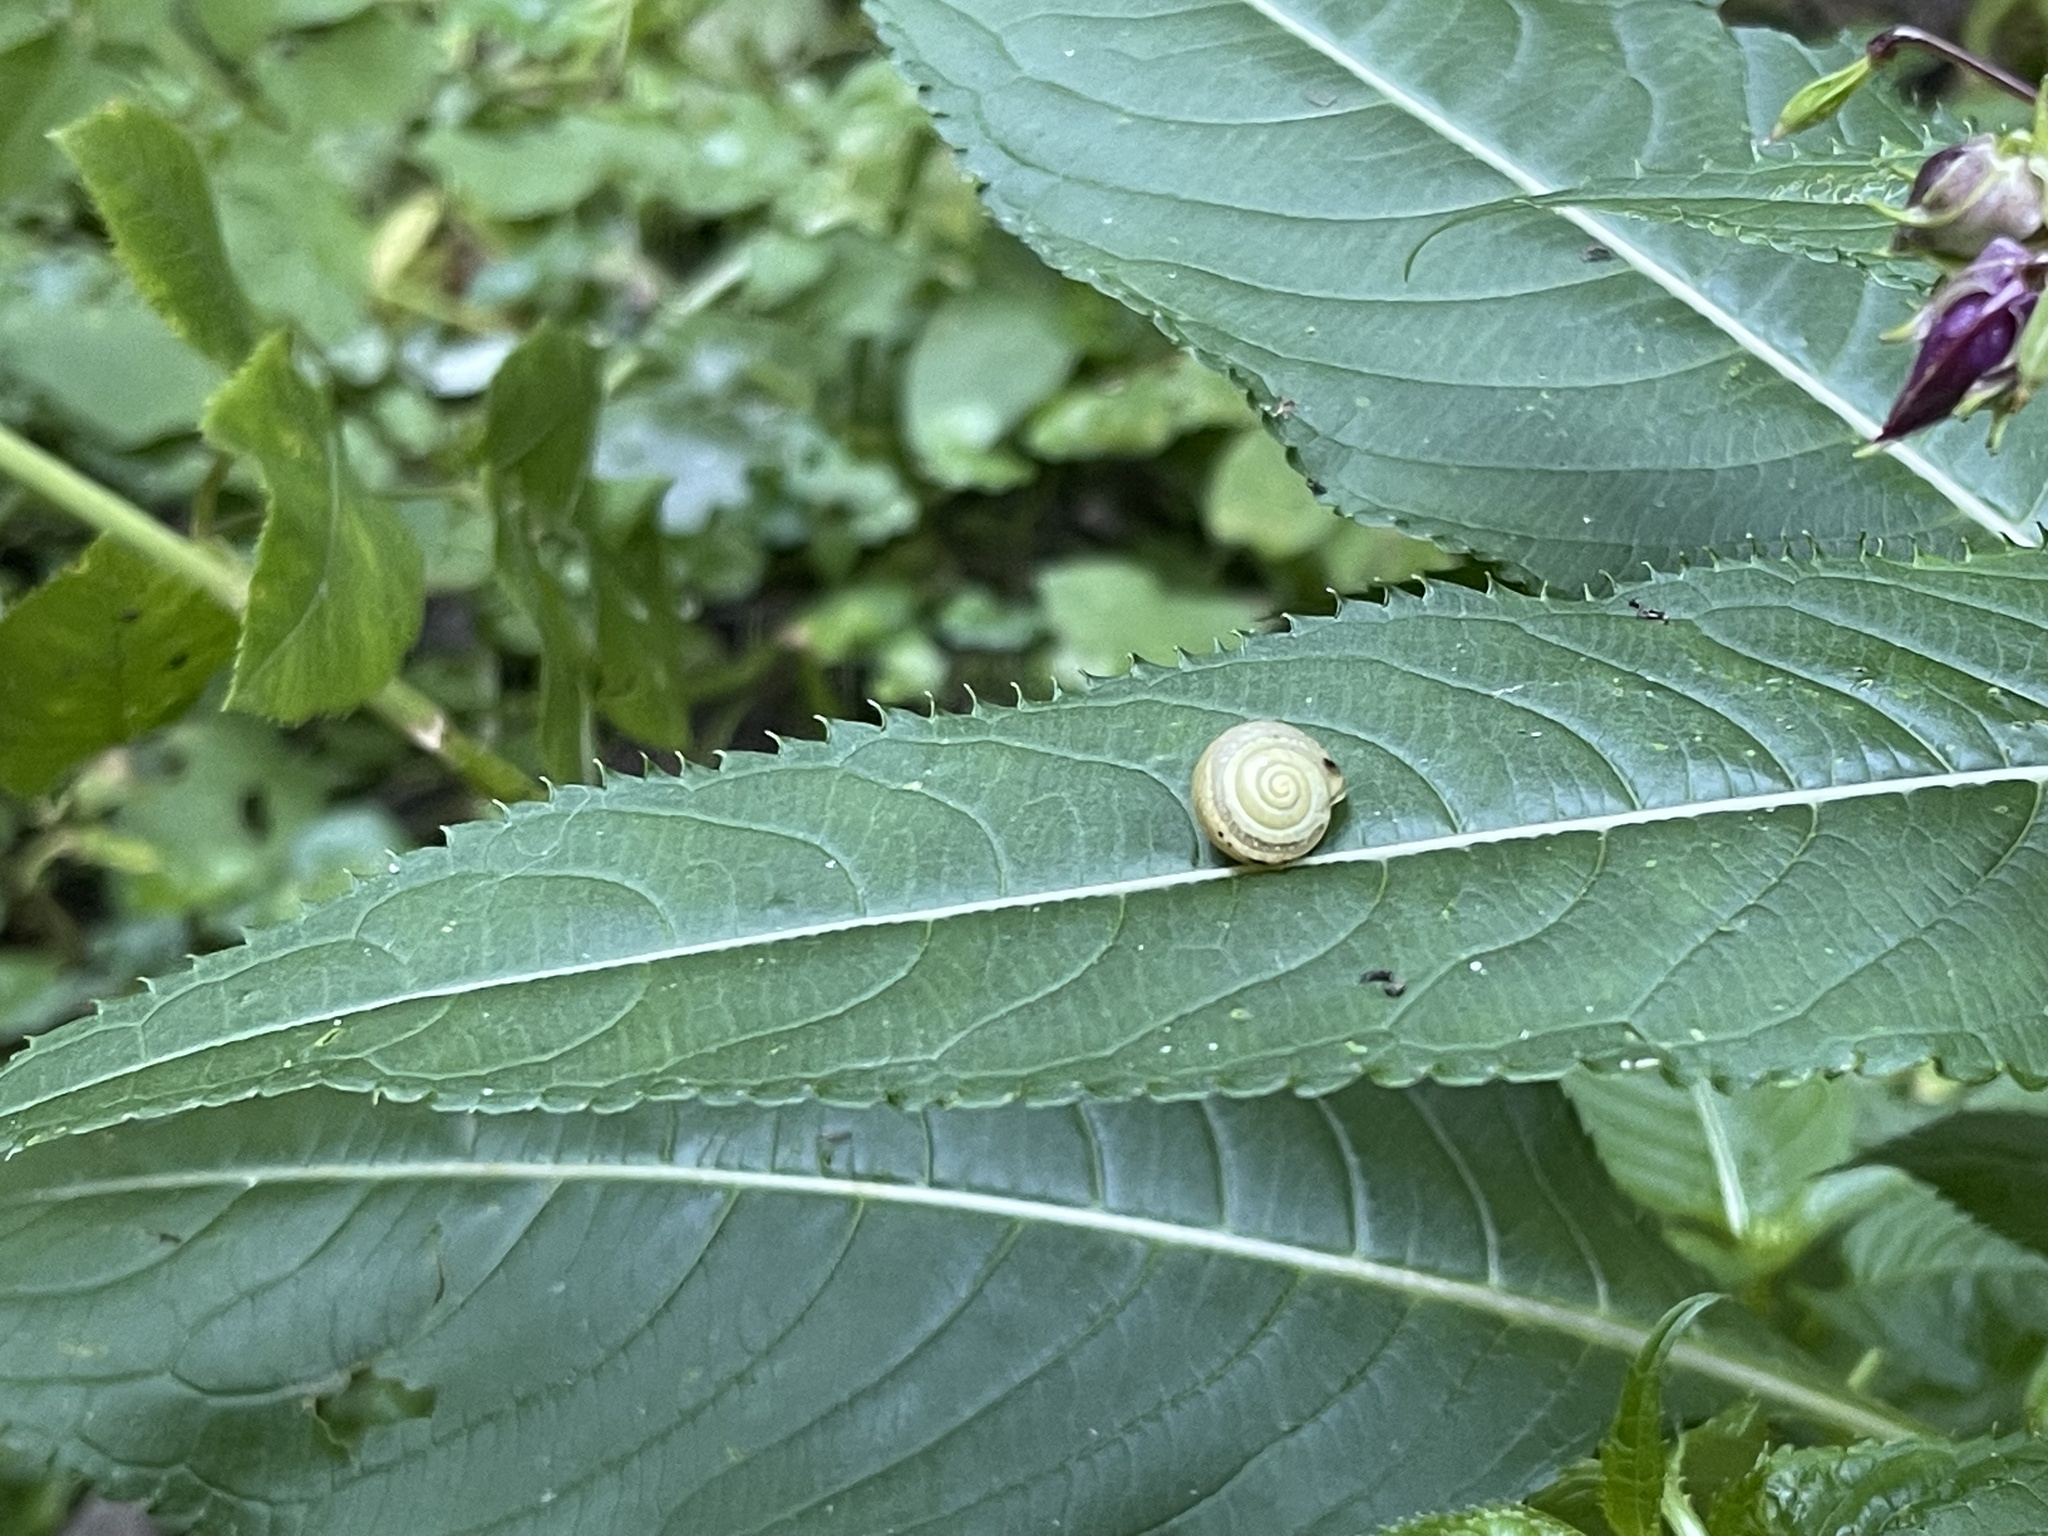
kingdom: Animalia
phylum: Mollusca
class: Gastropoda
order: Stylommatophora
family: Camaenidae
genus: Fruticicola
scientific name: Fruticicola fruticum
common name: Bush snail
